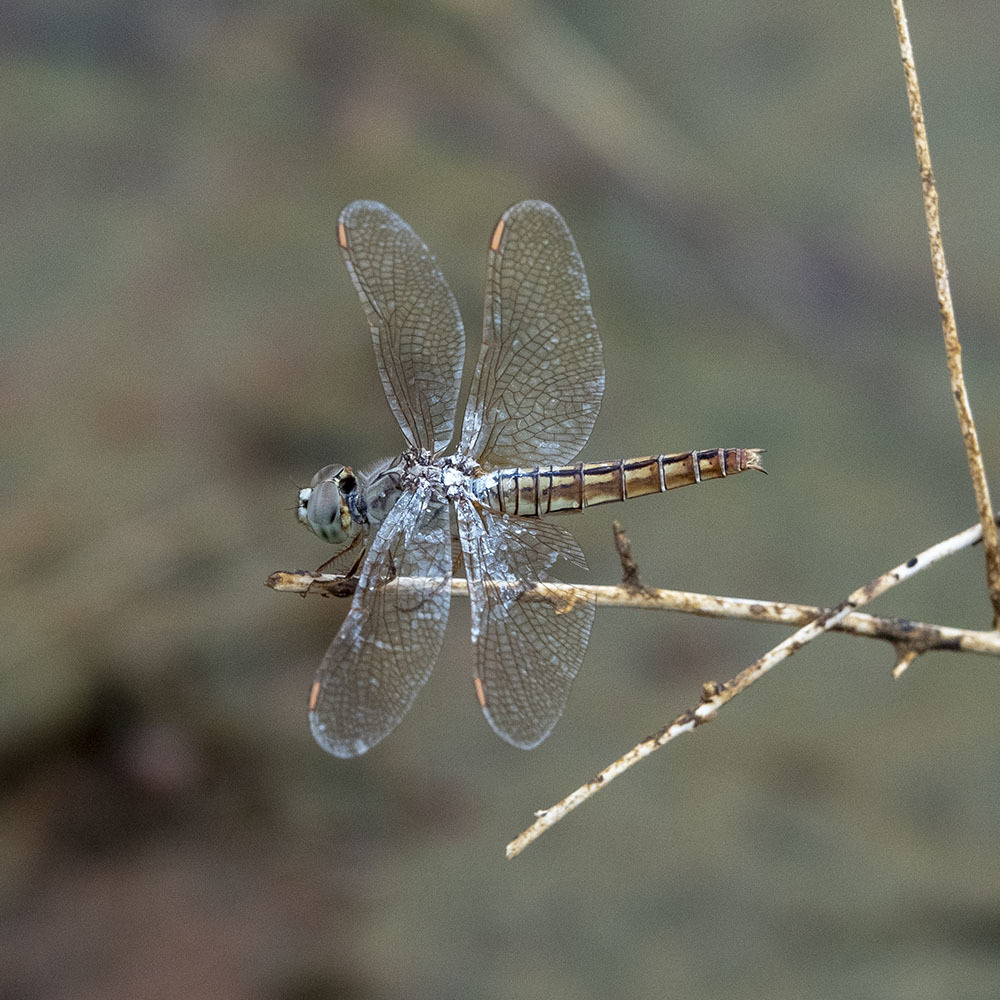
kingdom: Animalia
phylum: Arthropoda
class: Insecta
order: Odonata
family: Libellulidae
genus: Brachythemis
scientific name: Brachythemis contaminata
